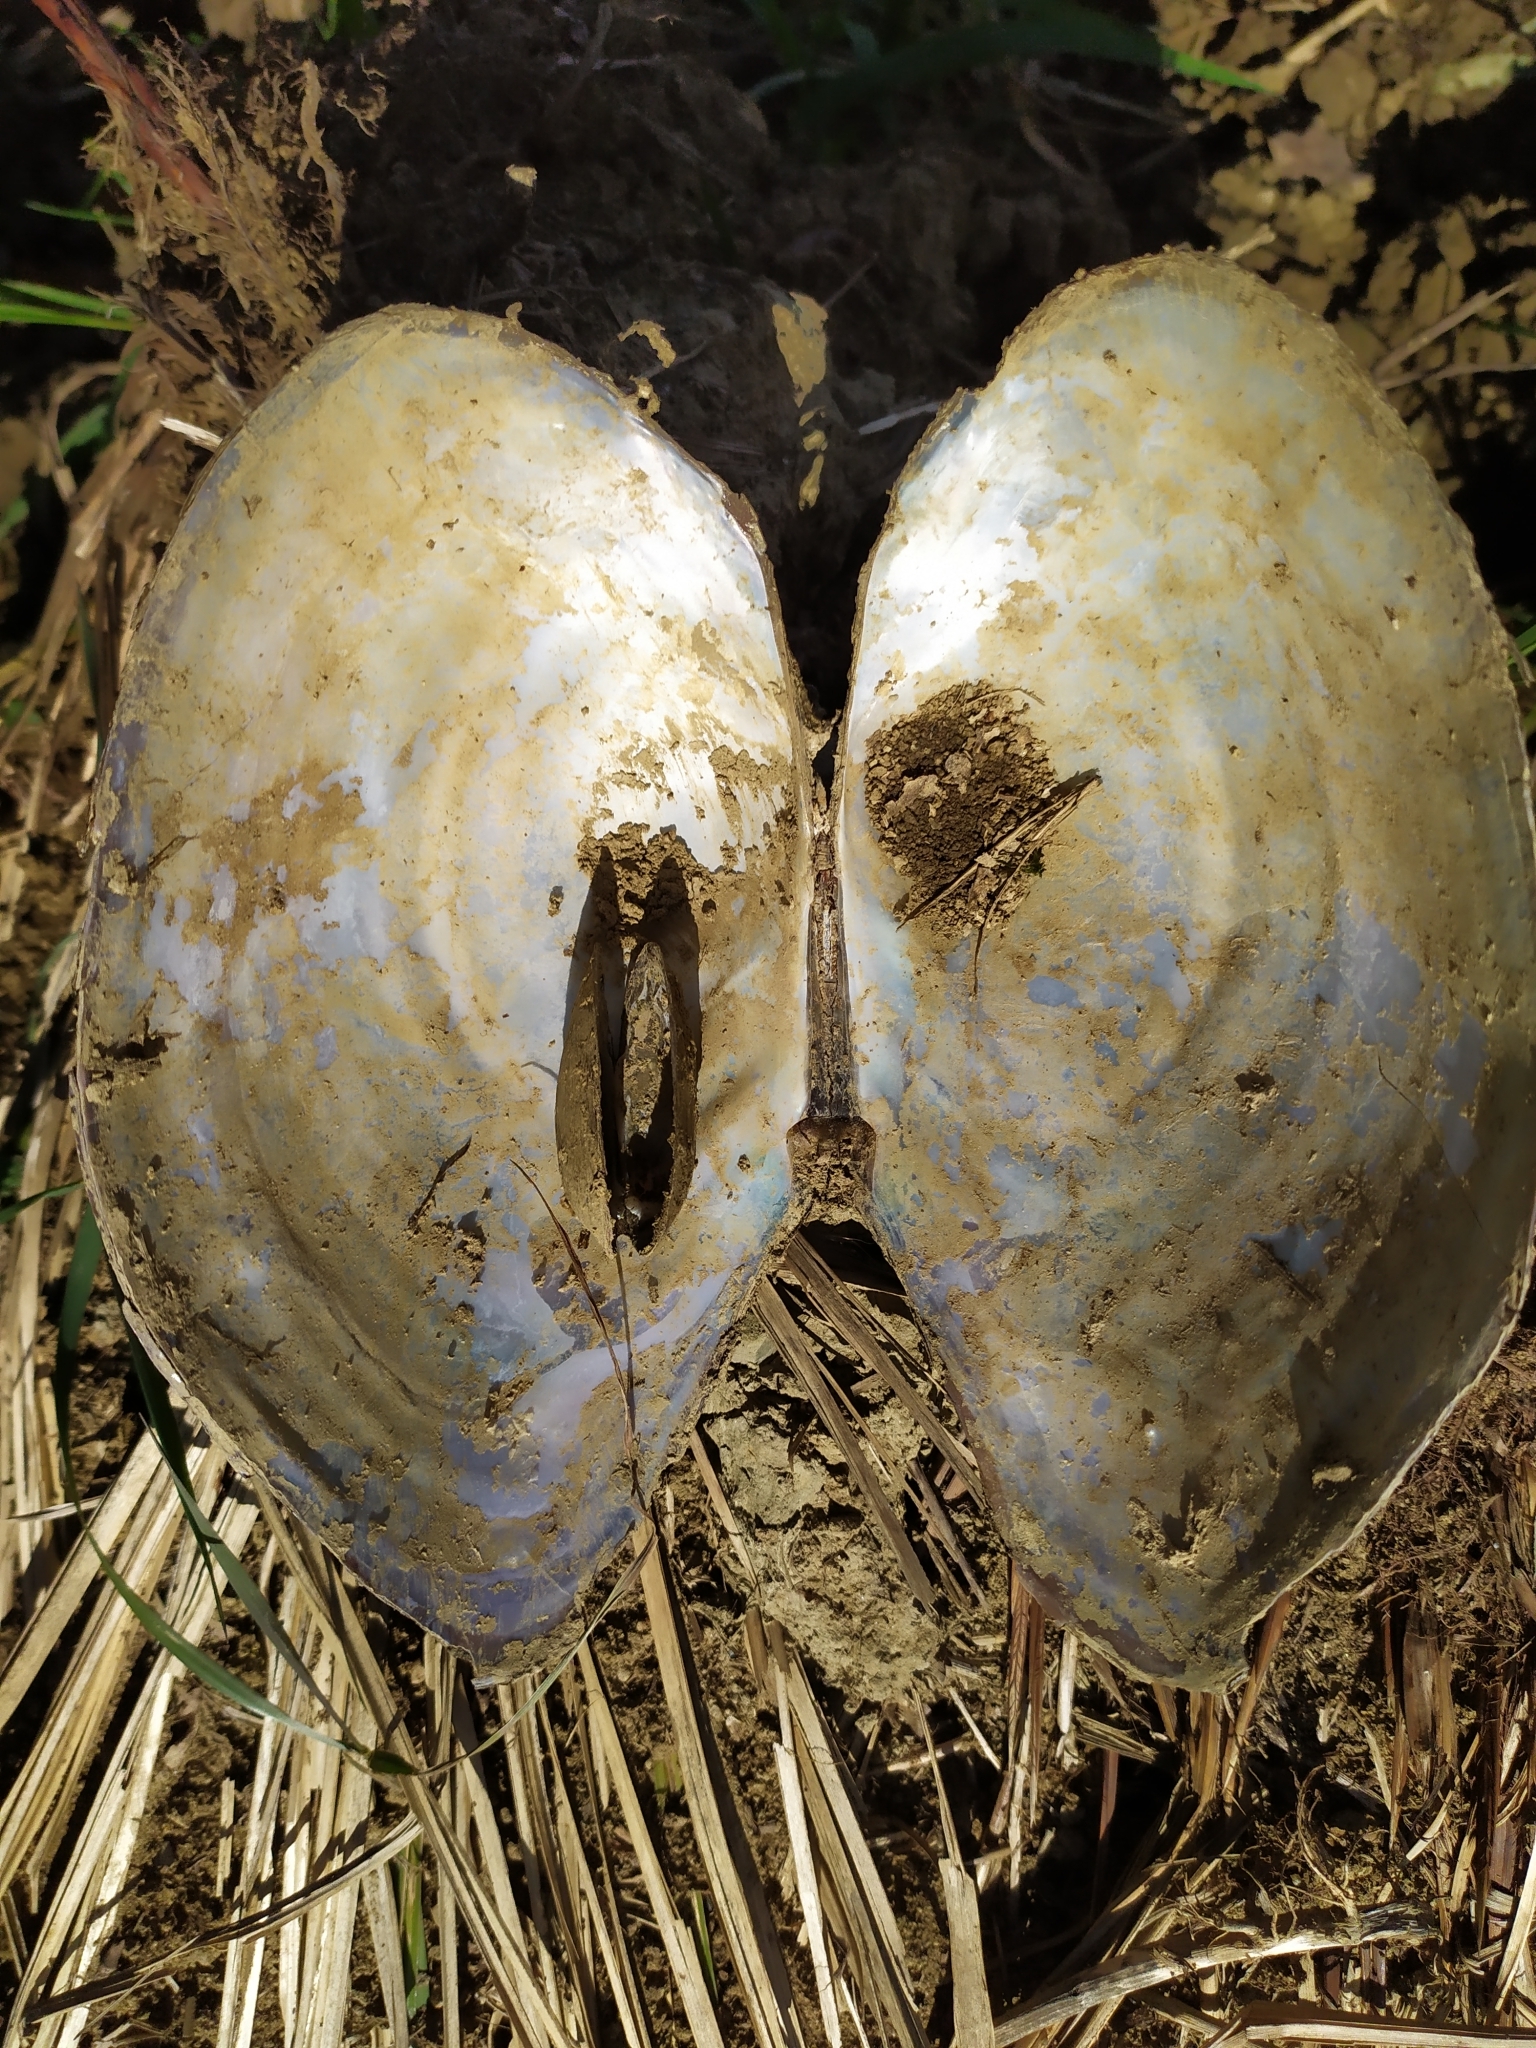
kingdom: Animalia
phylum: Mollusca
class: Bivalvia
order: Unionida
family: Unionidae
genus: Sinanodonta
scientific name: Sinanodonta woodiana
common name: Chinese pond mussel
